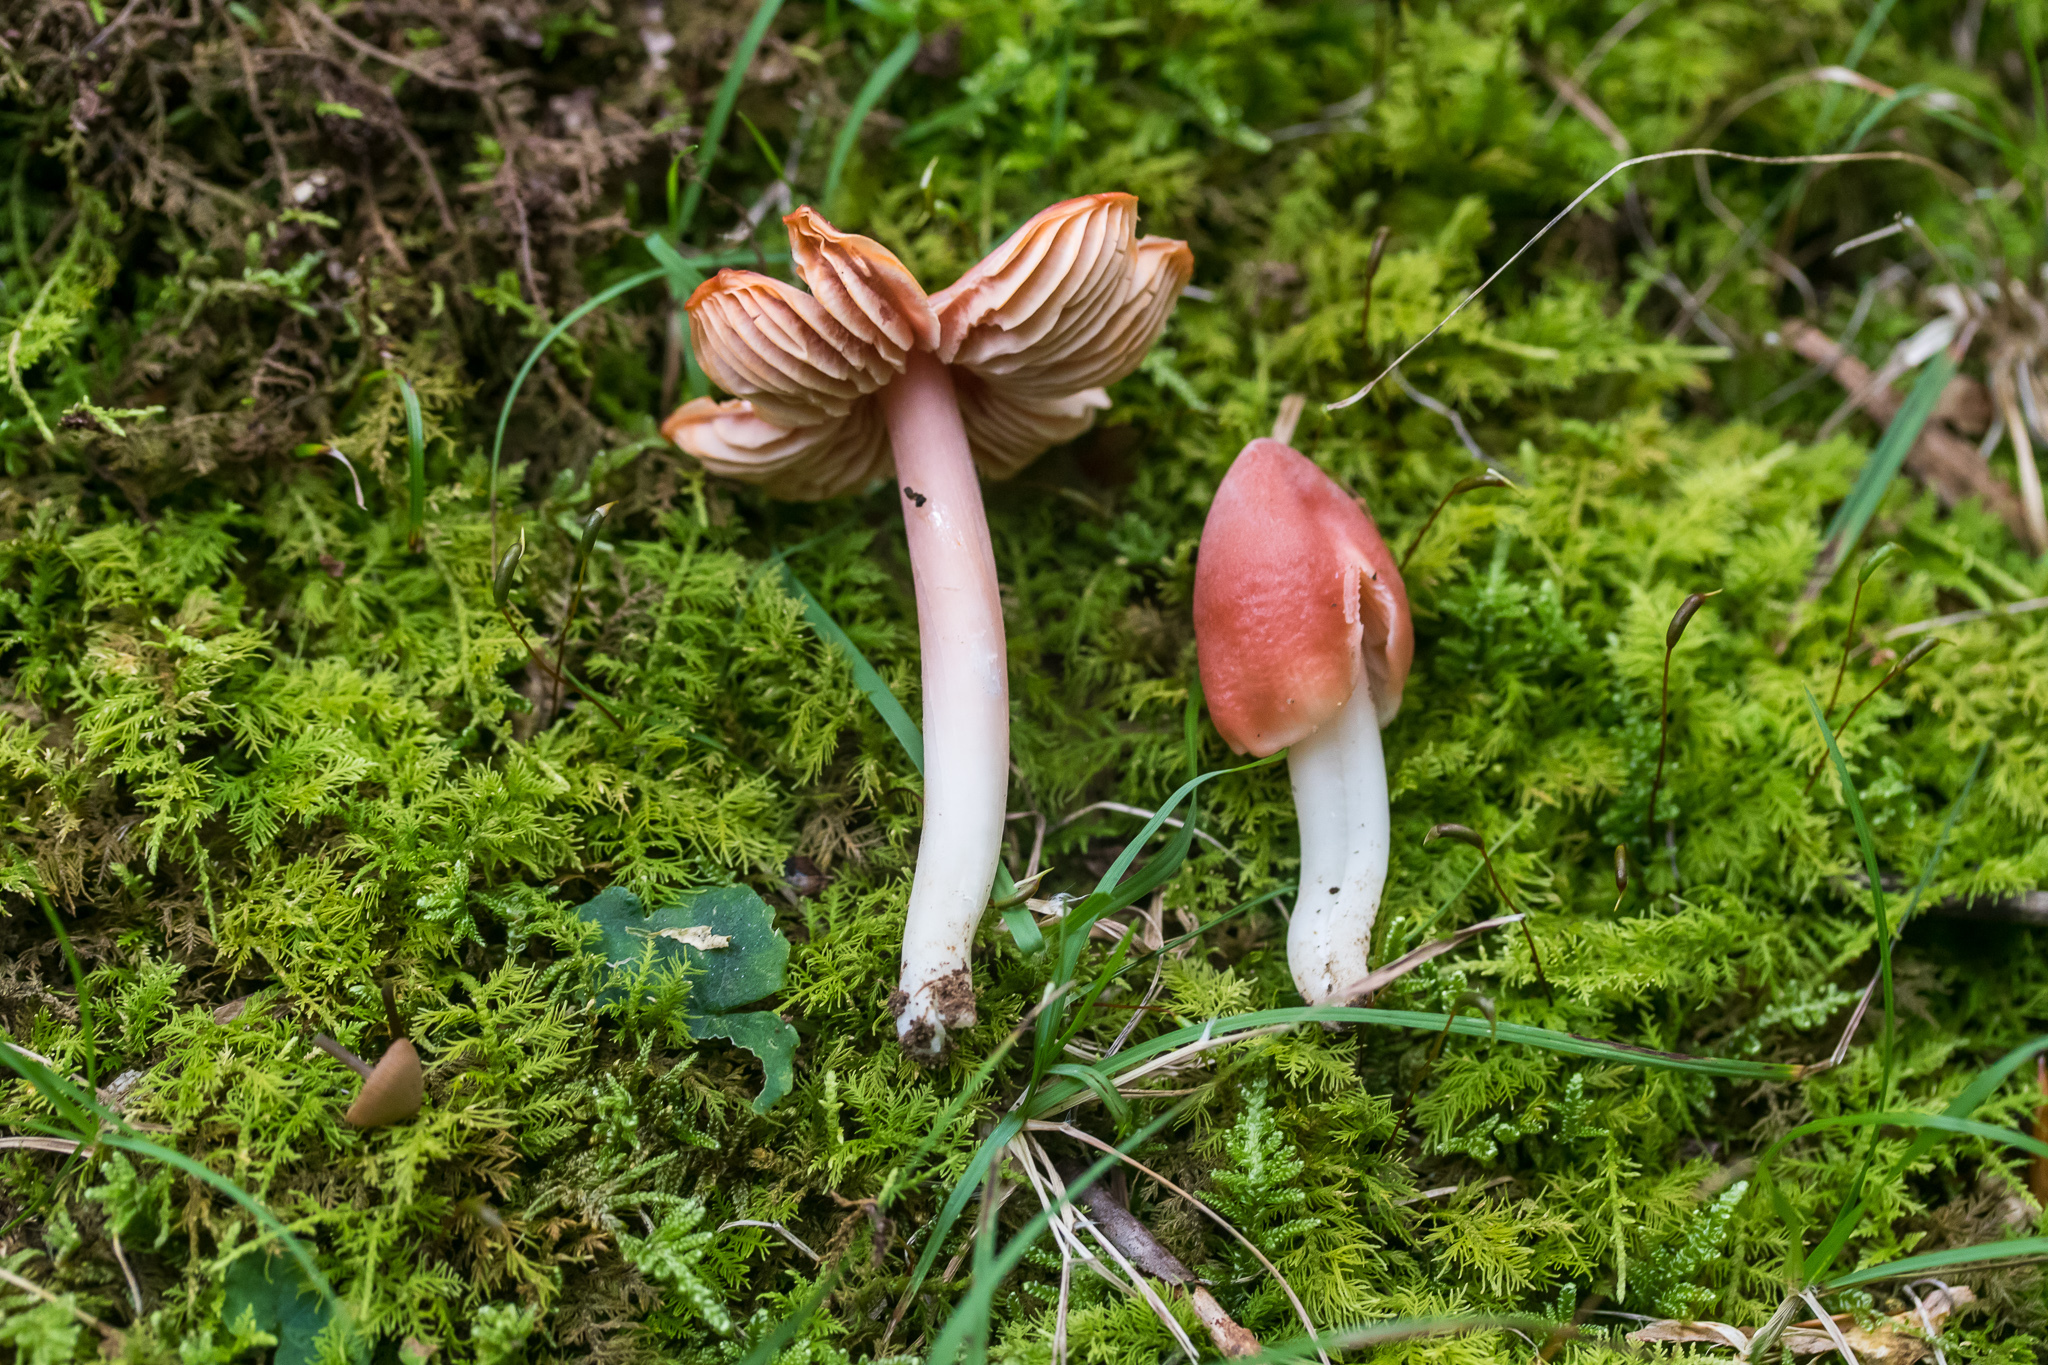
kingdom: Fungi
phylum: Basidiomycota
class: Agaricomycetes
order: Agaricales
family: Hygrophoraceae
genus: Porpolomopsis
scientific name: Porpolomopsis calyptriformis
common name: Pink waxcap
